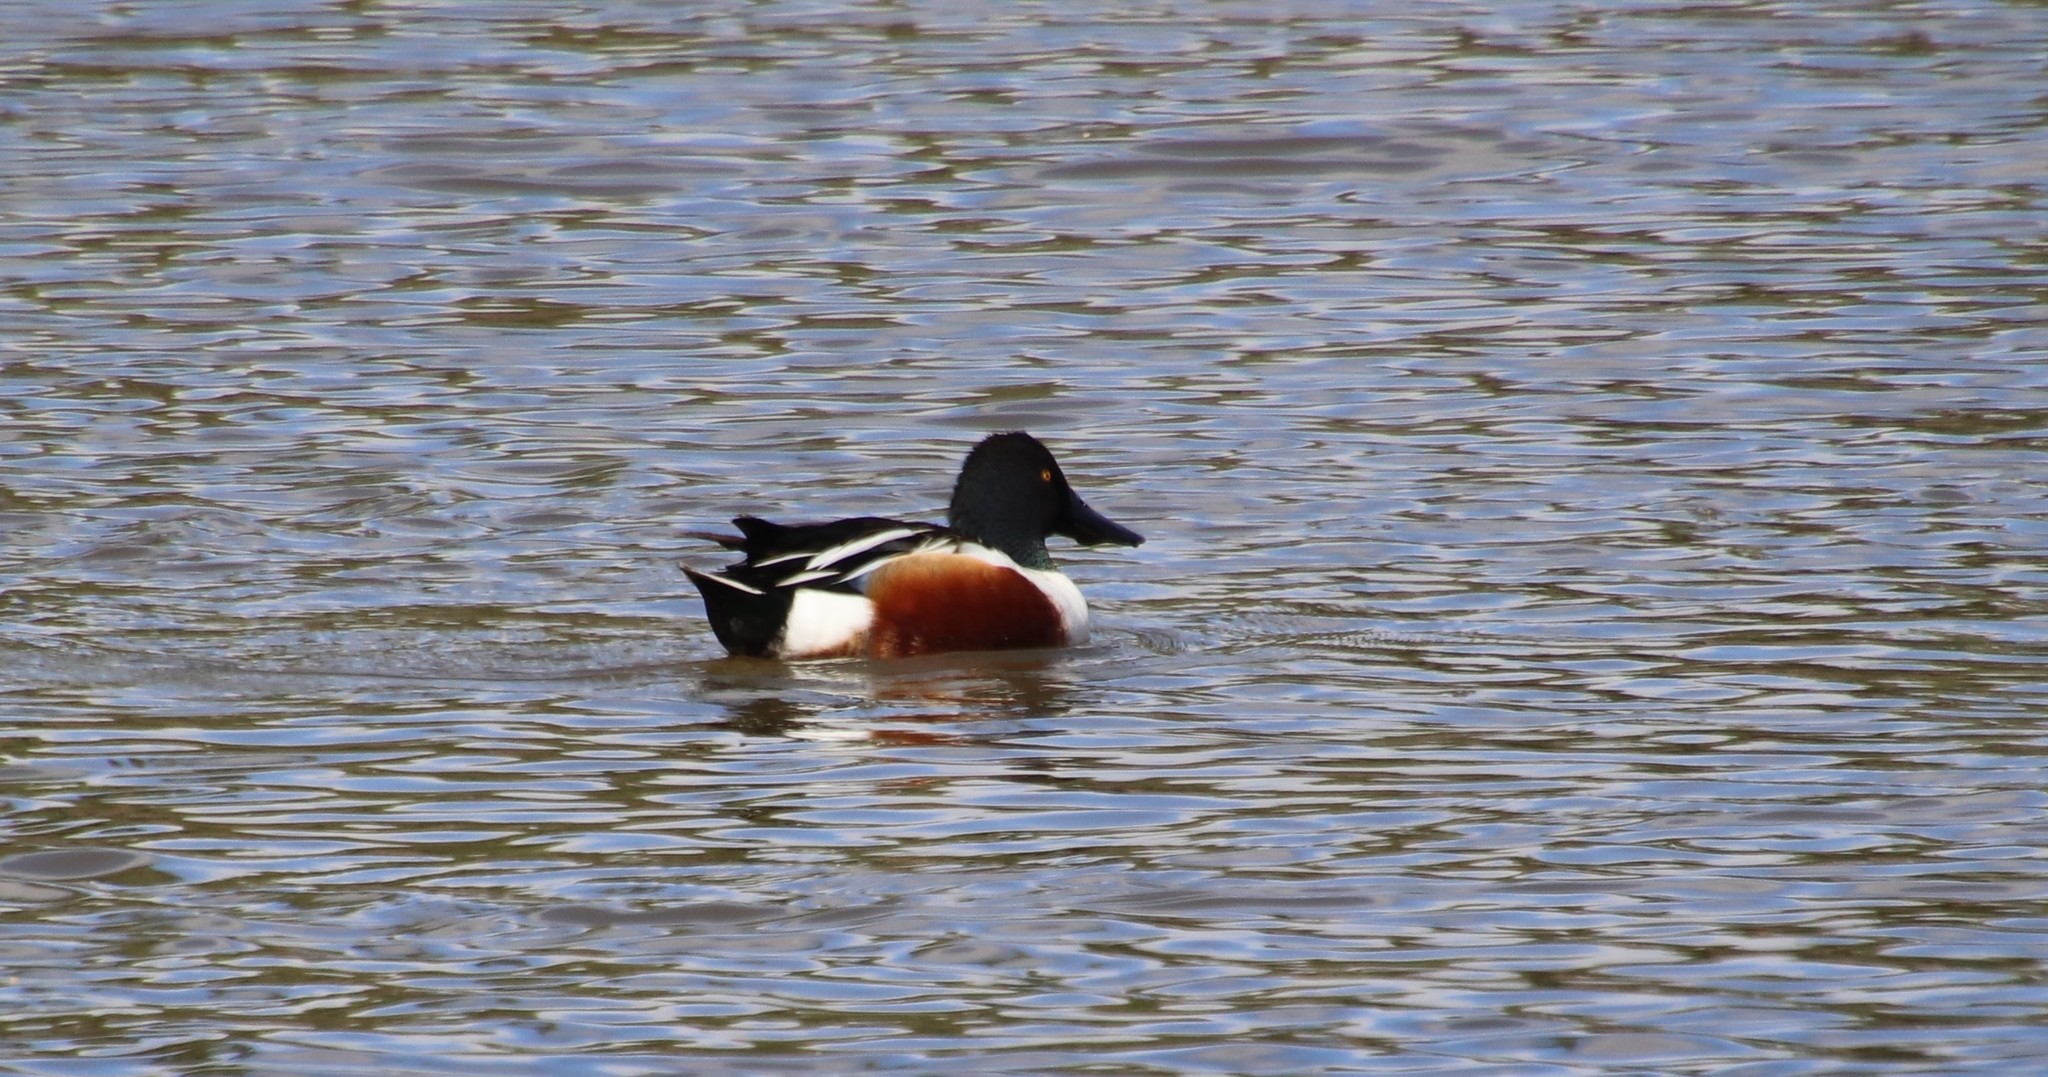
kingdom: Animalia
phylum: Chordata
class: Aves
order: Anseriformes
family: Anatidae
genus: Spatula
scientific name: Spatula clypeata
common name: Northern shoveler
